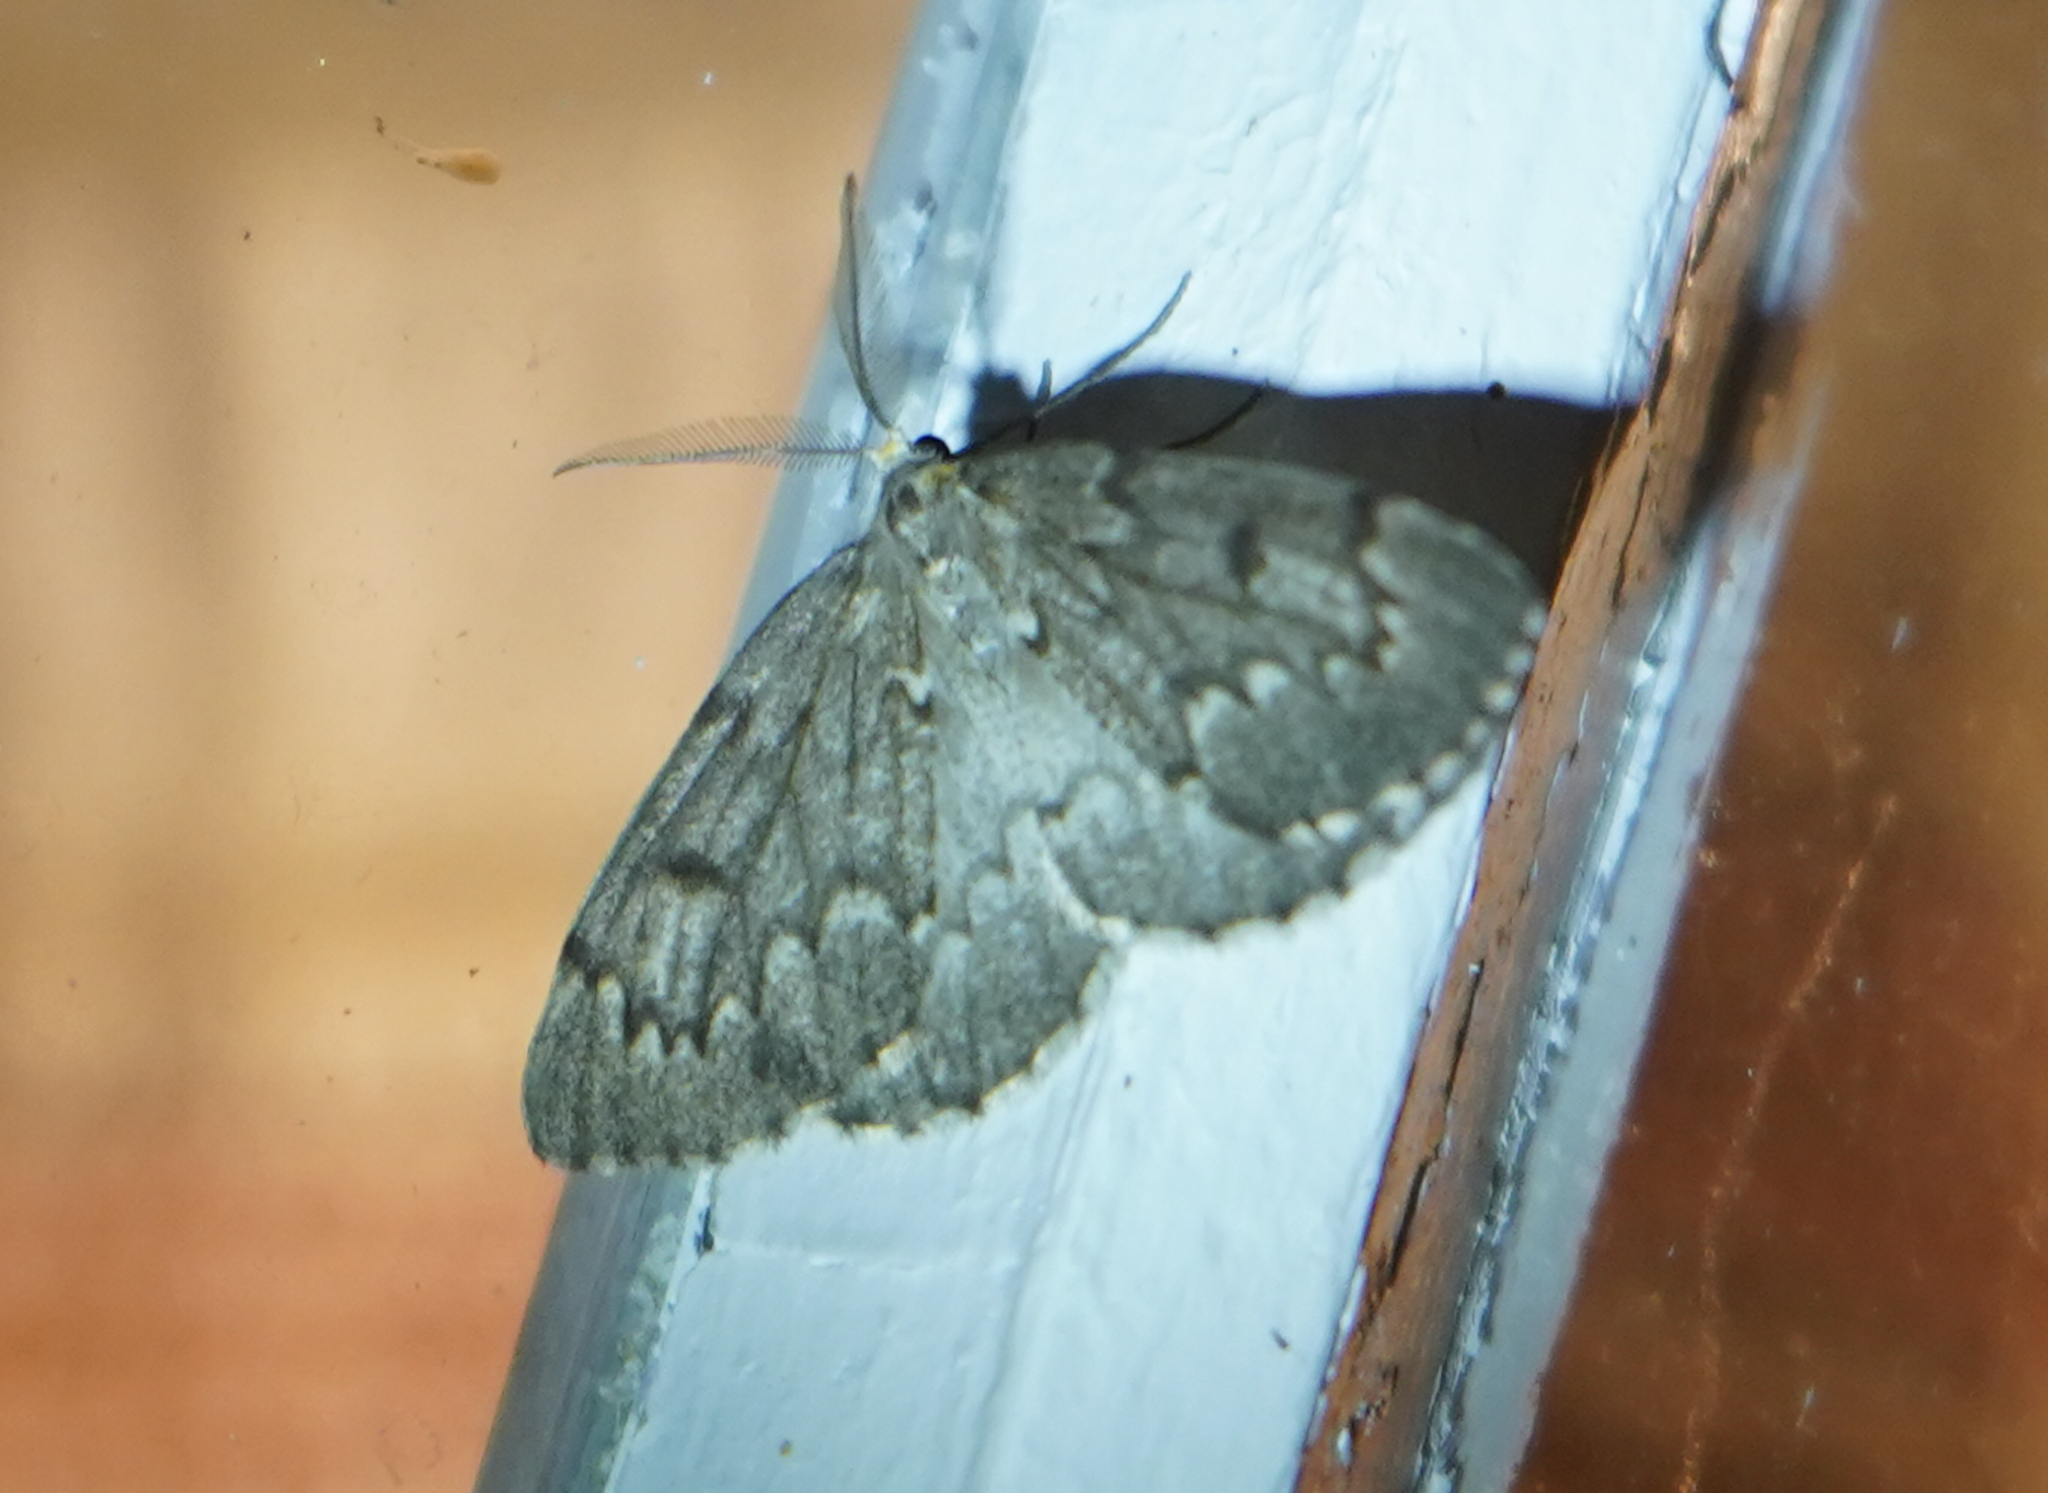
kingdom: Animalia
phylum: Arthropoda
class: Insecta
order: Lepidoptera
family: Geometridae
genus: Nepytia
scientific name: Nepytia canosaria
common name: False hemlock looper
